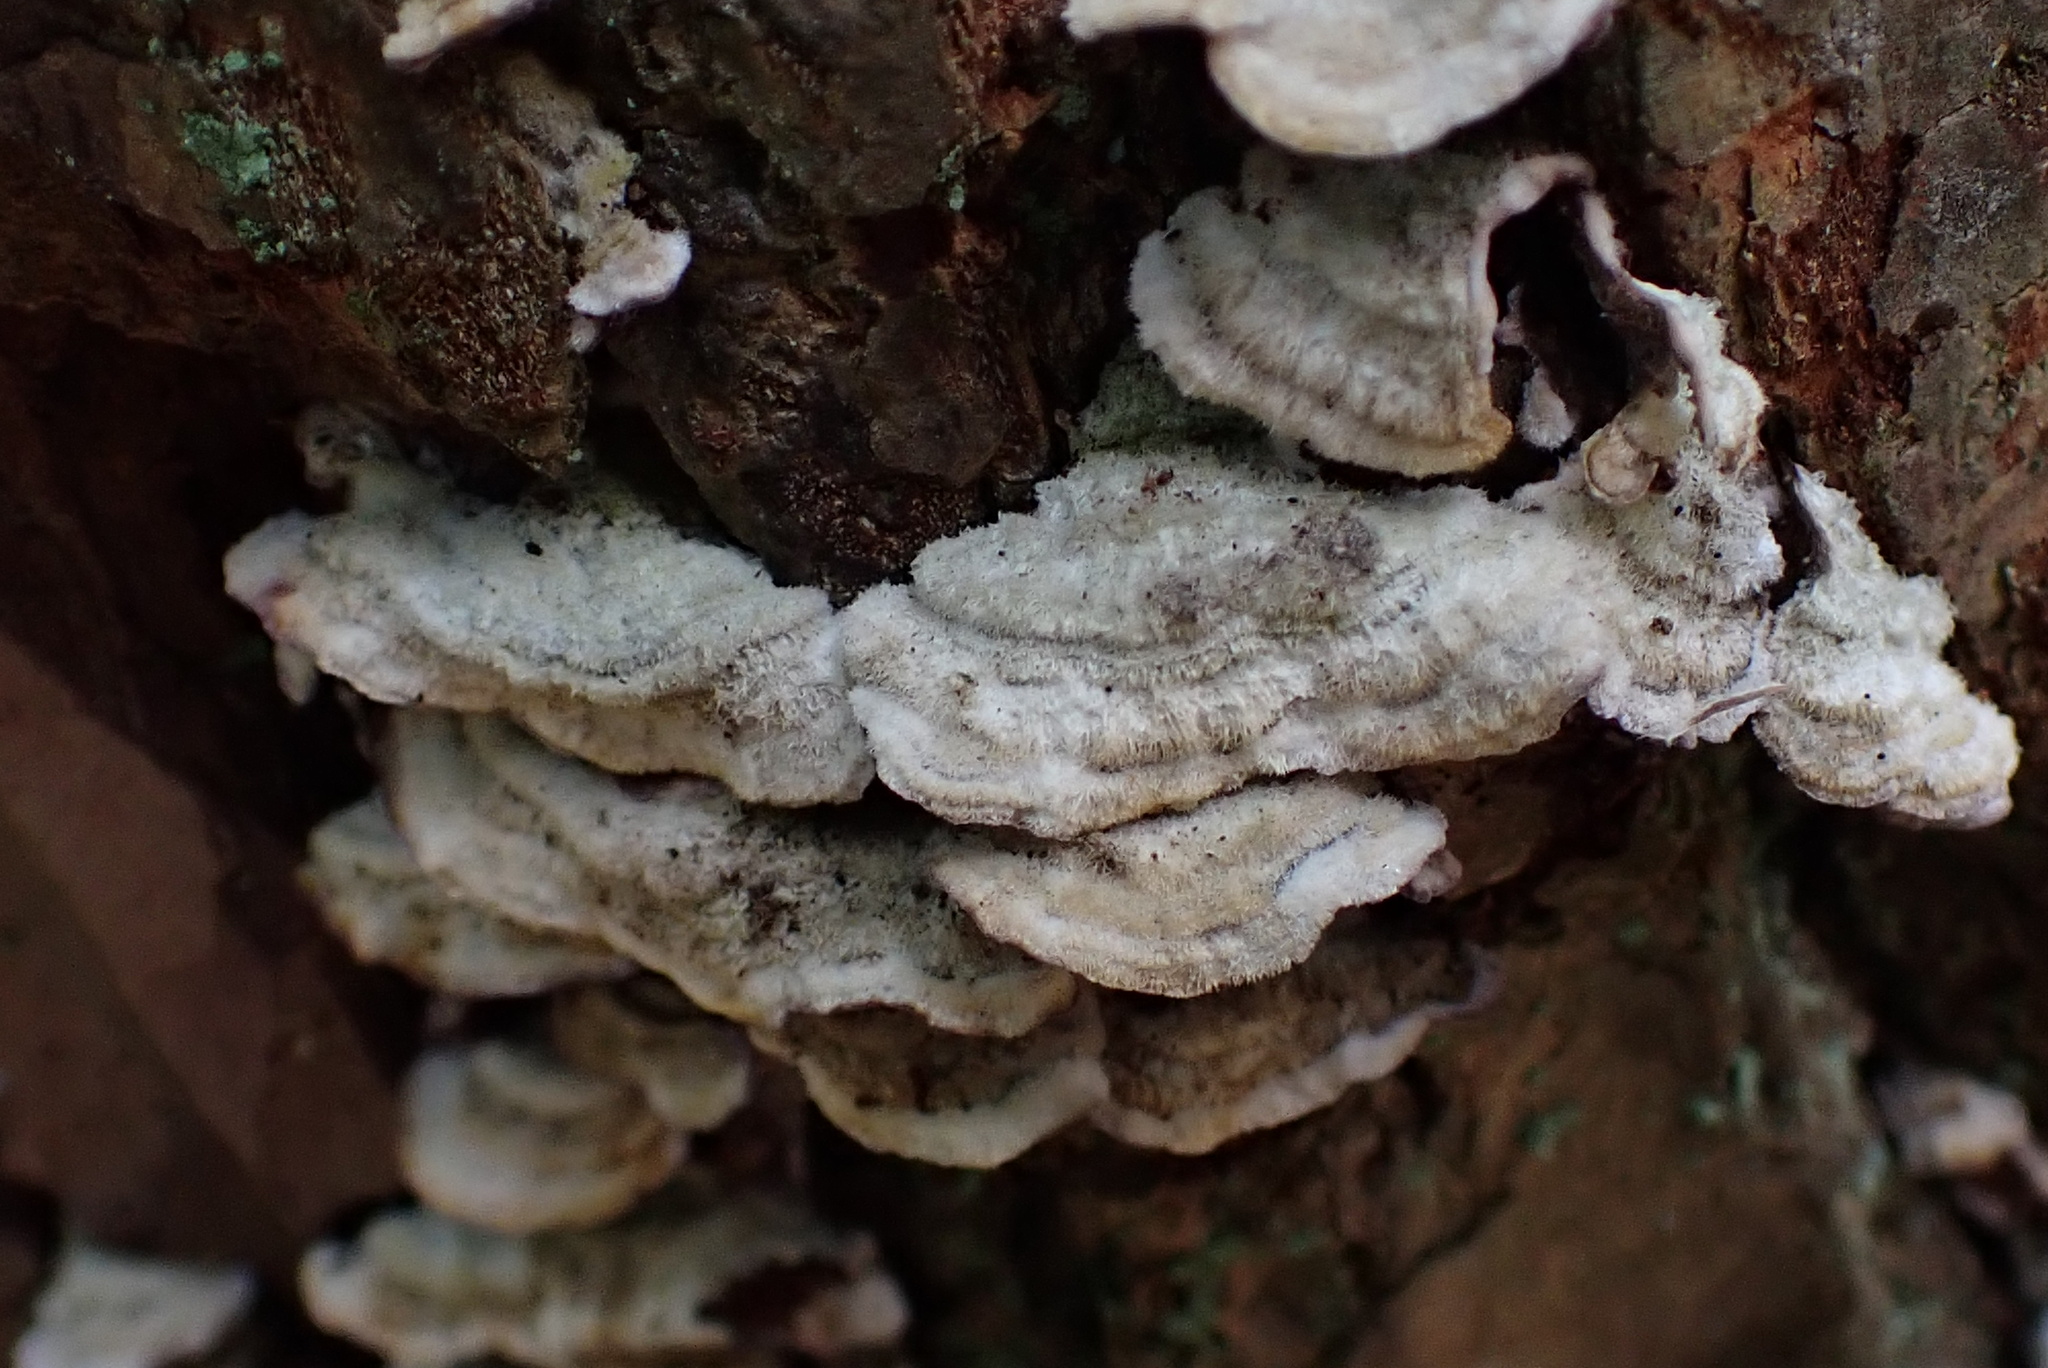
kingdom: Fungi
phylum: Basidiomycota
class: Agaricomycetes
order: Hymenochaetales
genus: Trichaptum
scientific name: Trichaptum abietinum
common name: Purplepore bracket
